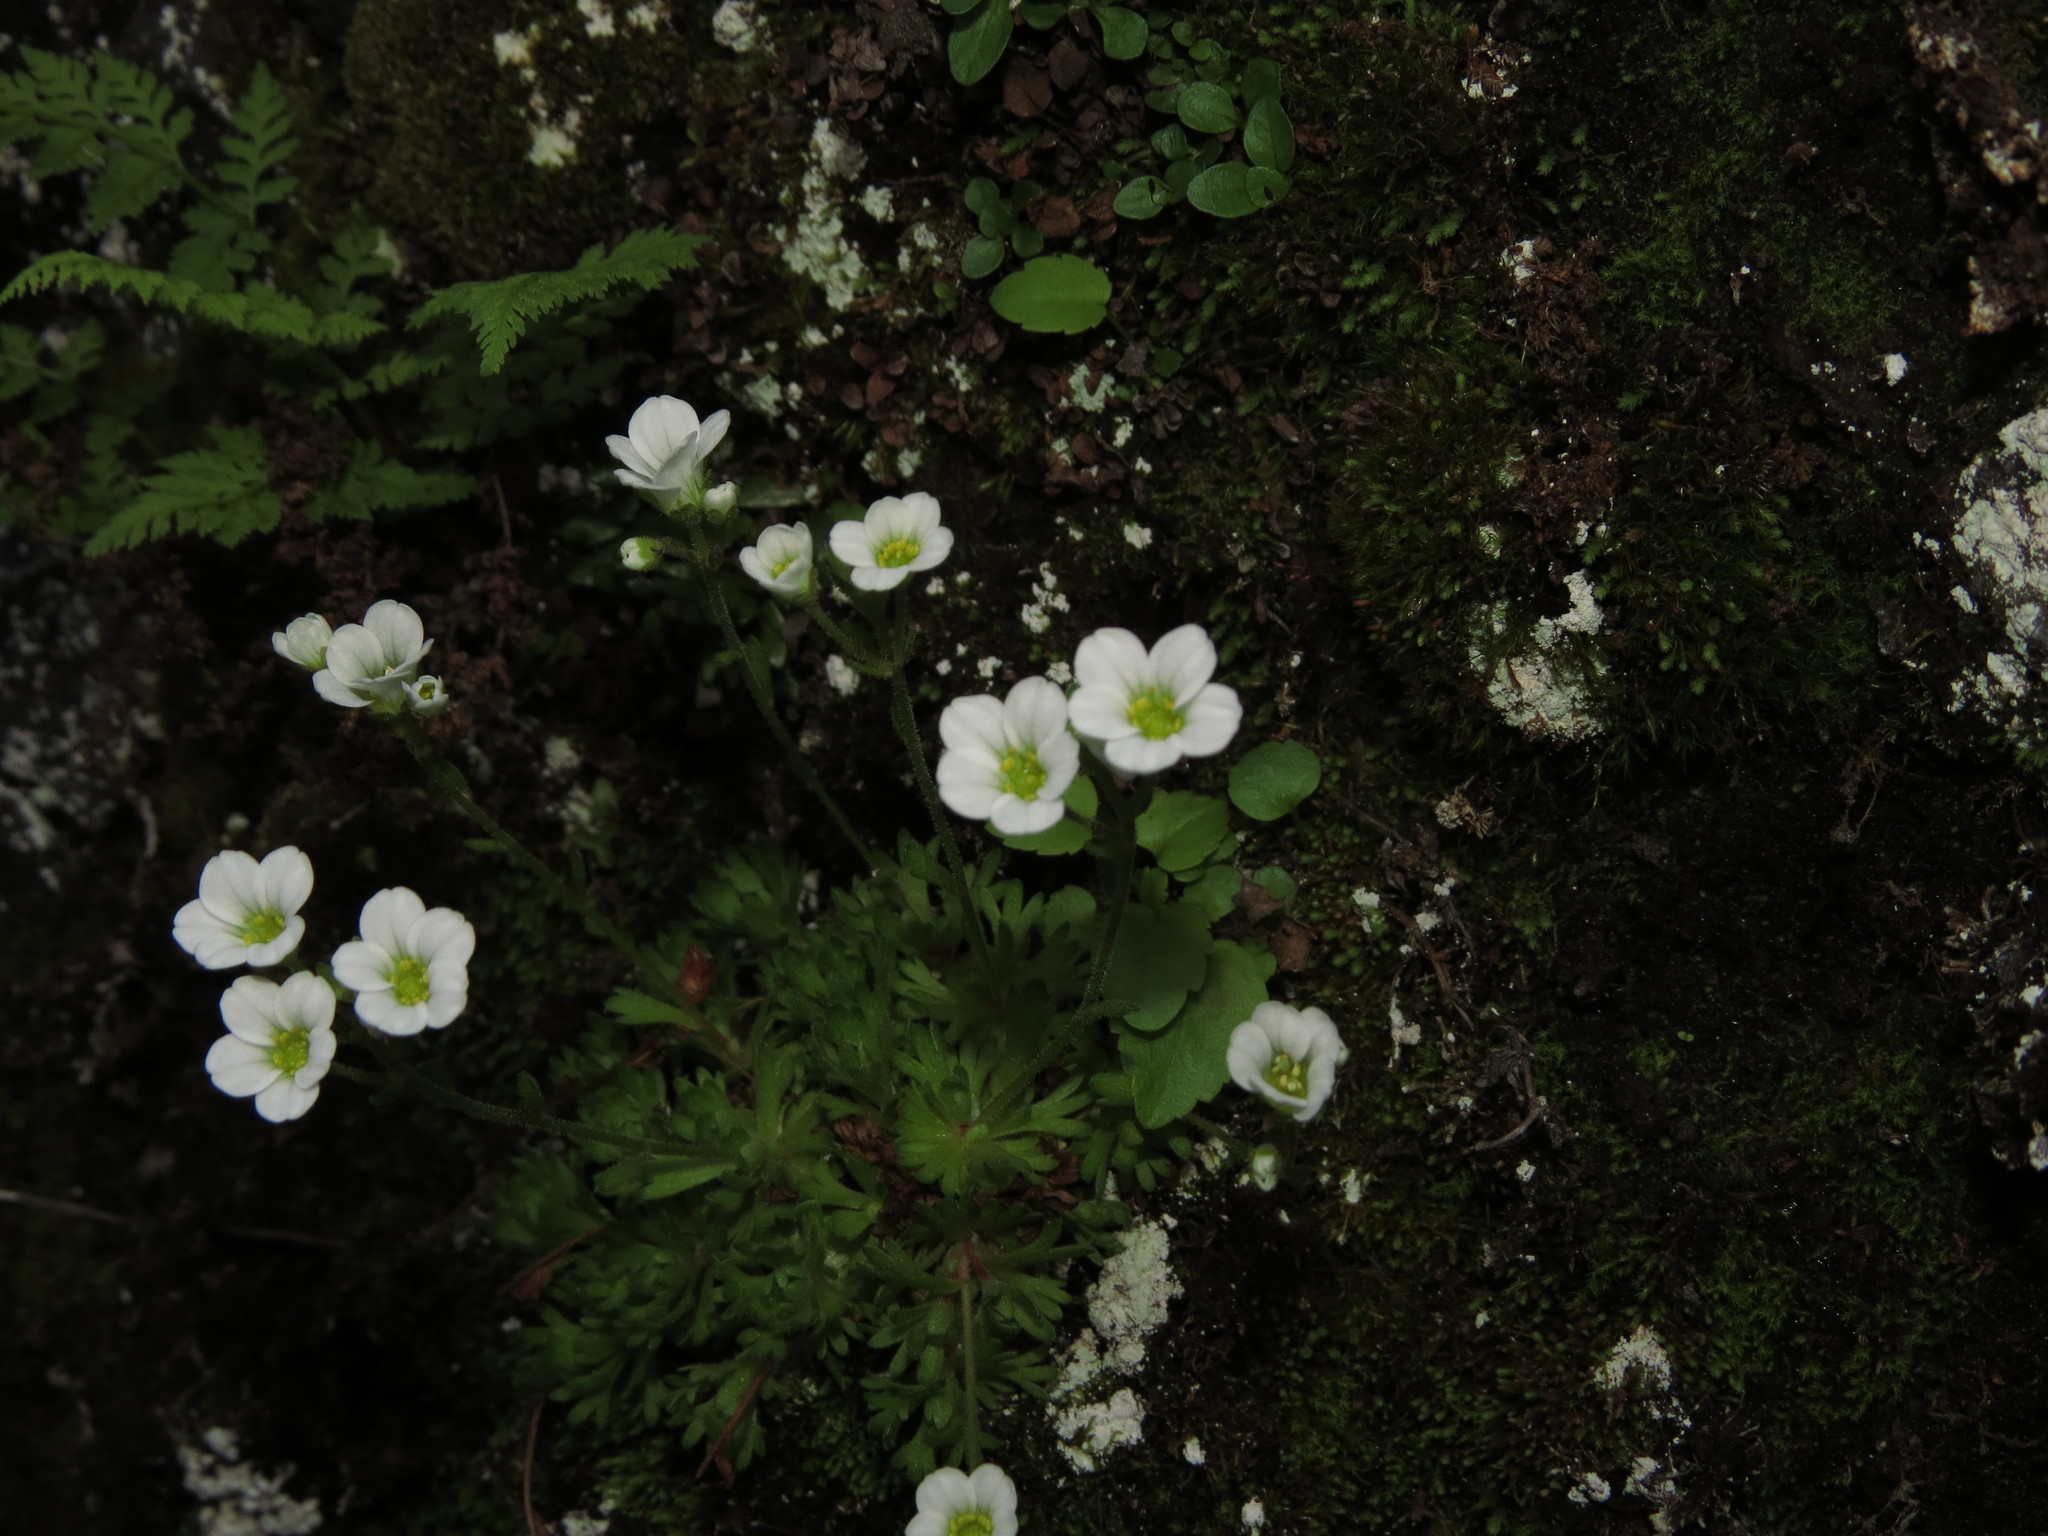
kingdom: Plantae
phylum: Tracheophyta
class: Magnoliopsida
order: Saxifragales
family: Saxifragaceae
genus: Saxifraga
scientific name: Saxifraga magellanica
